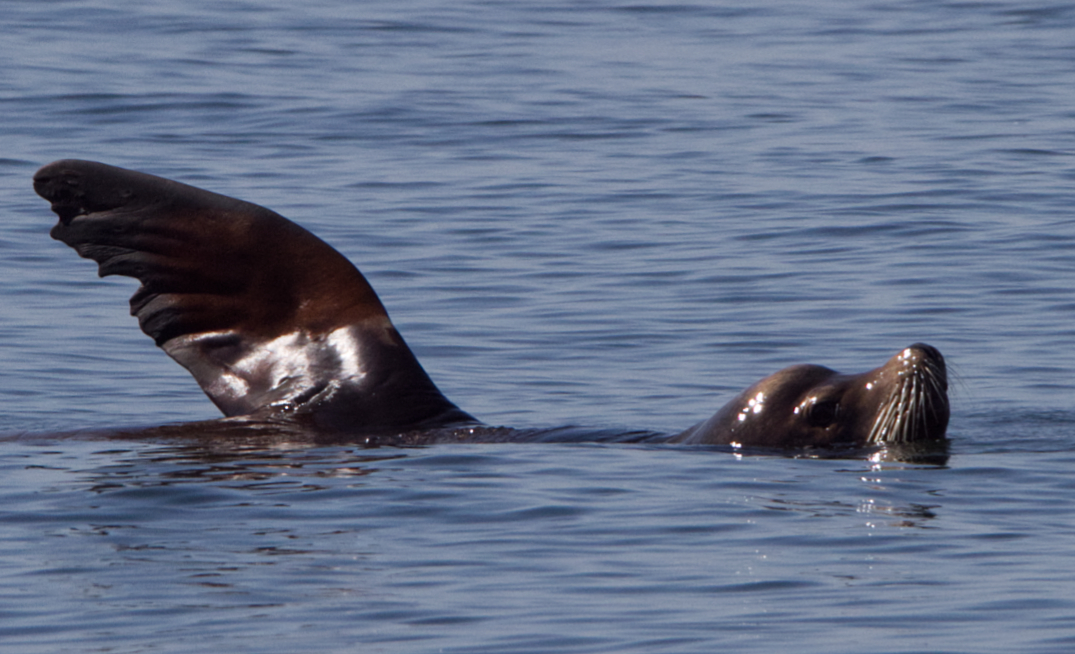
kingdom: Animalia
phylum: Chordata
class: Mammalia
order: Carnivora
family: Otariidae
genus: Zalophus
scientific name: Zalophus californianus
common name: California sea lion
